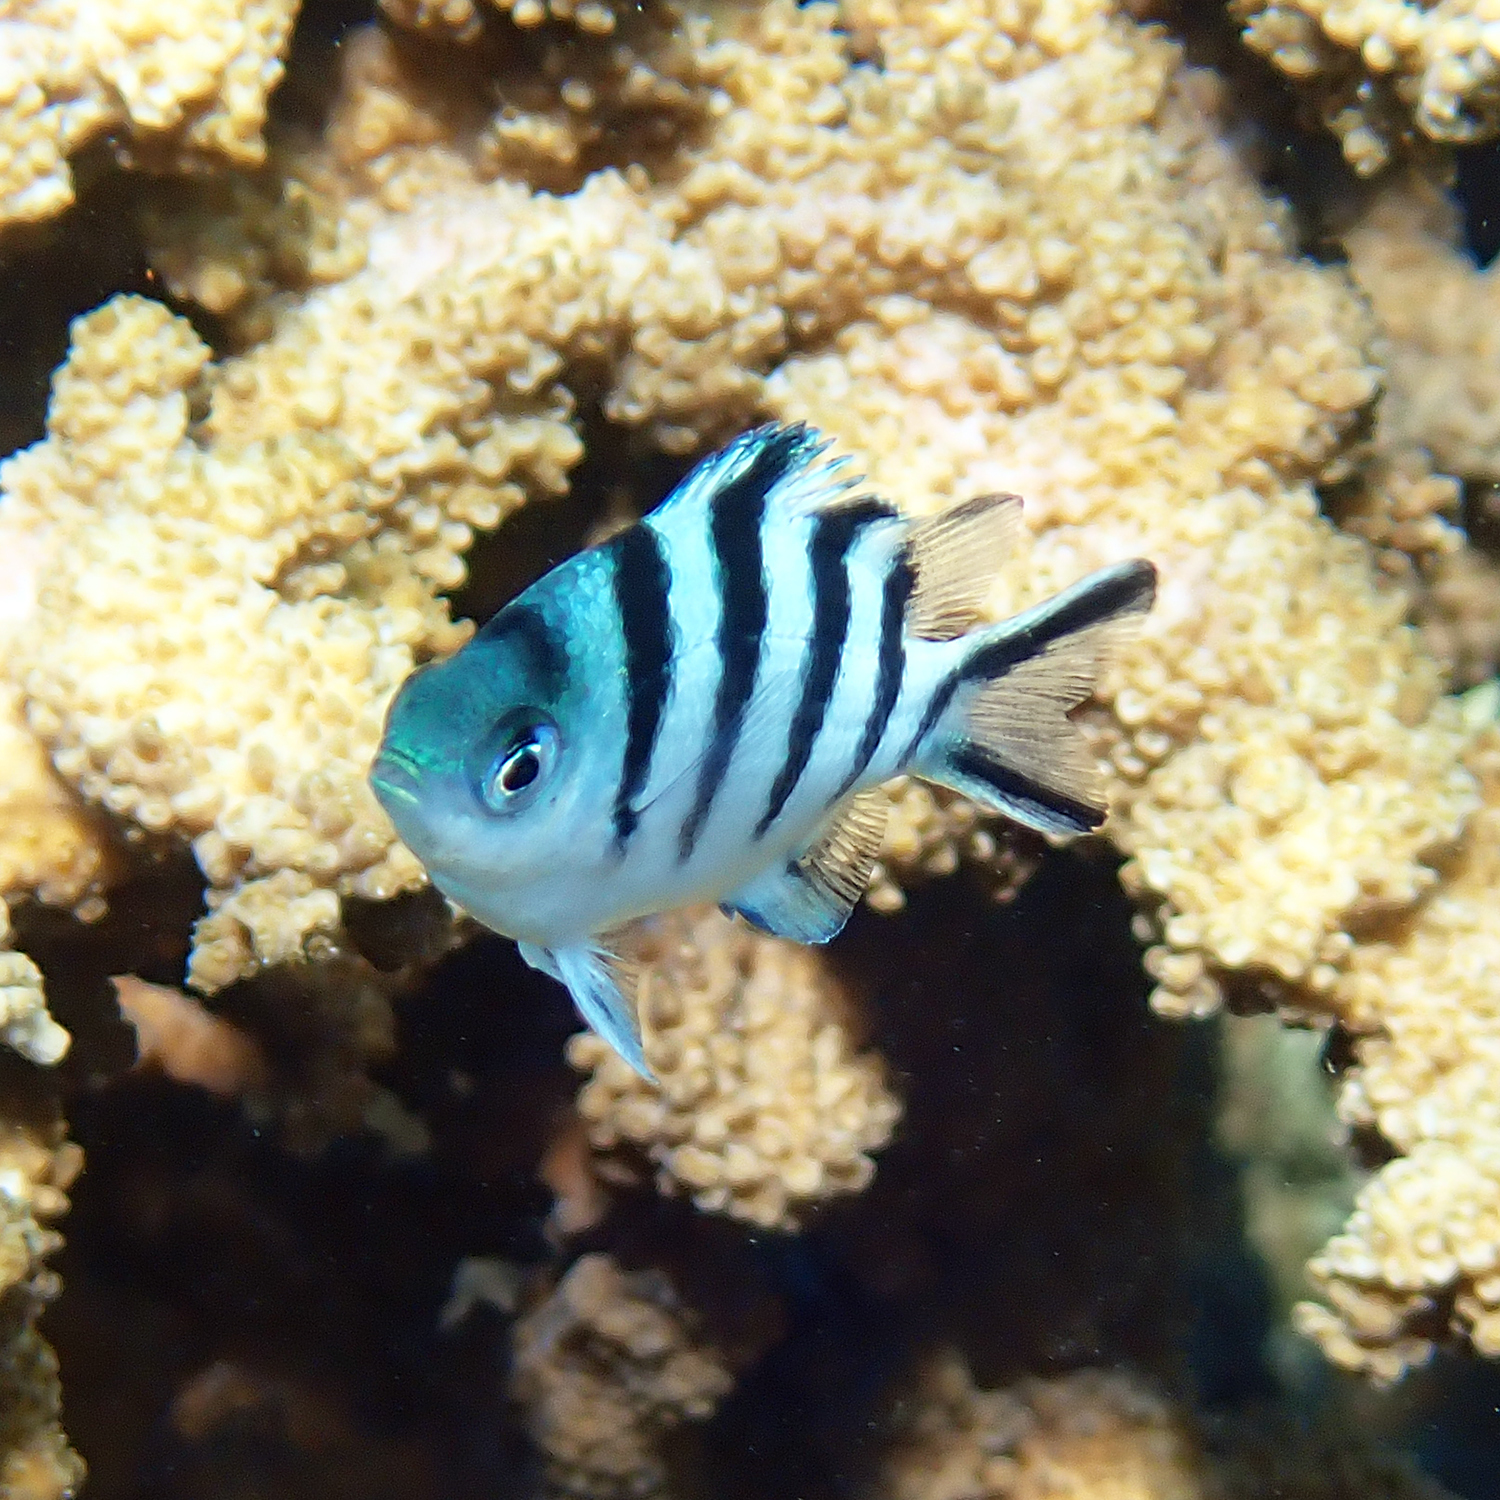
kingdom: Animalia
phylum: Chordata
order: Perciformes
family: Pomacentridae
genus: Abudefduf
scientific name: Abudefduf sexfasciatus
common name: Scissortail sergeant
